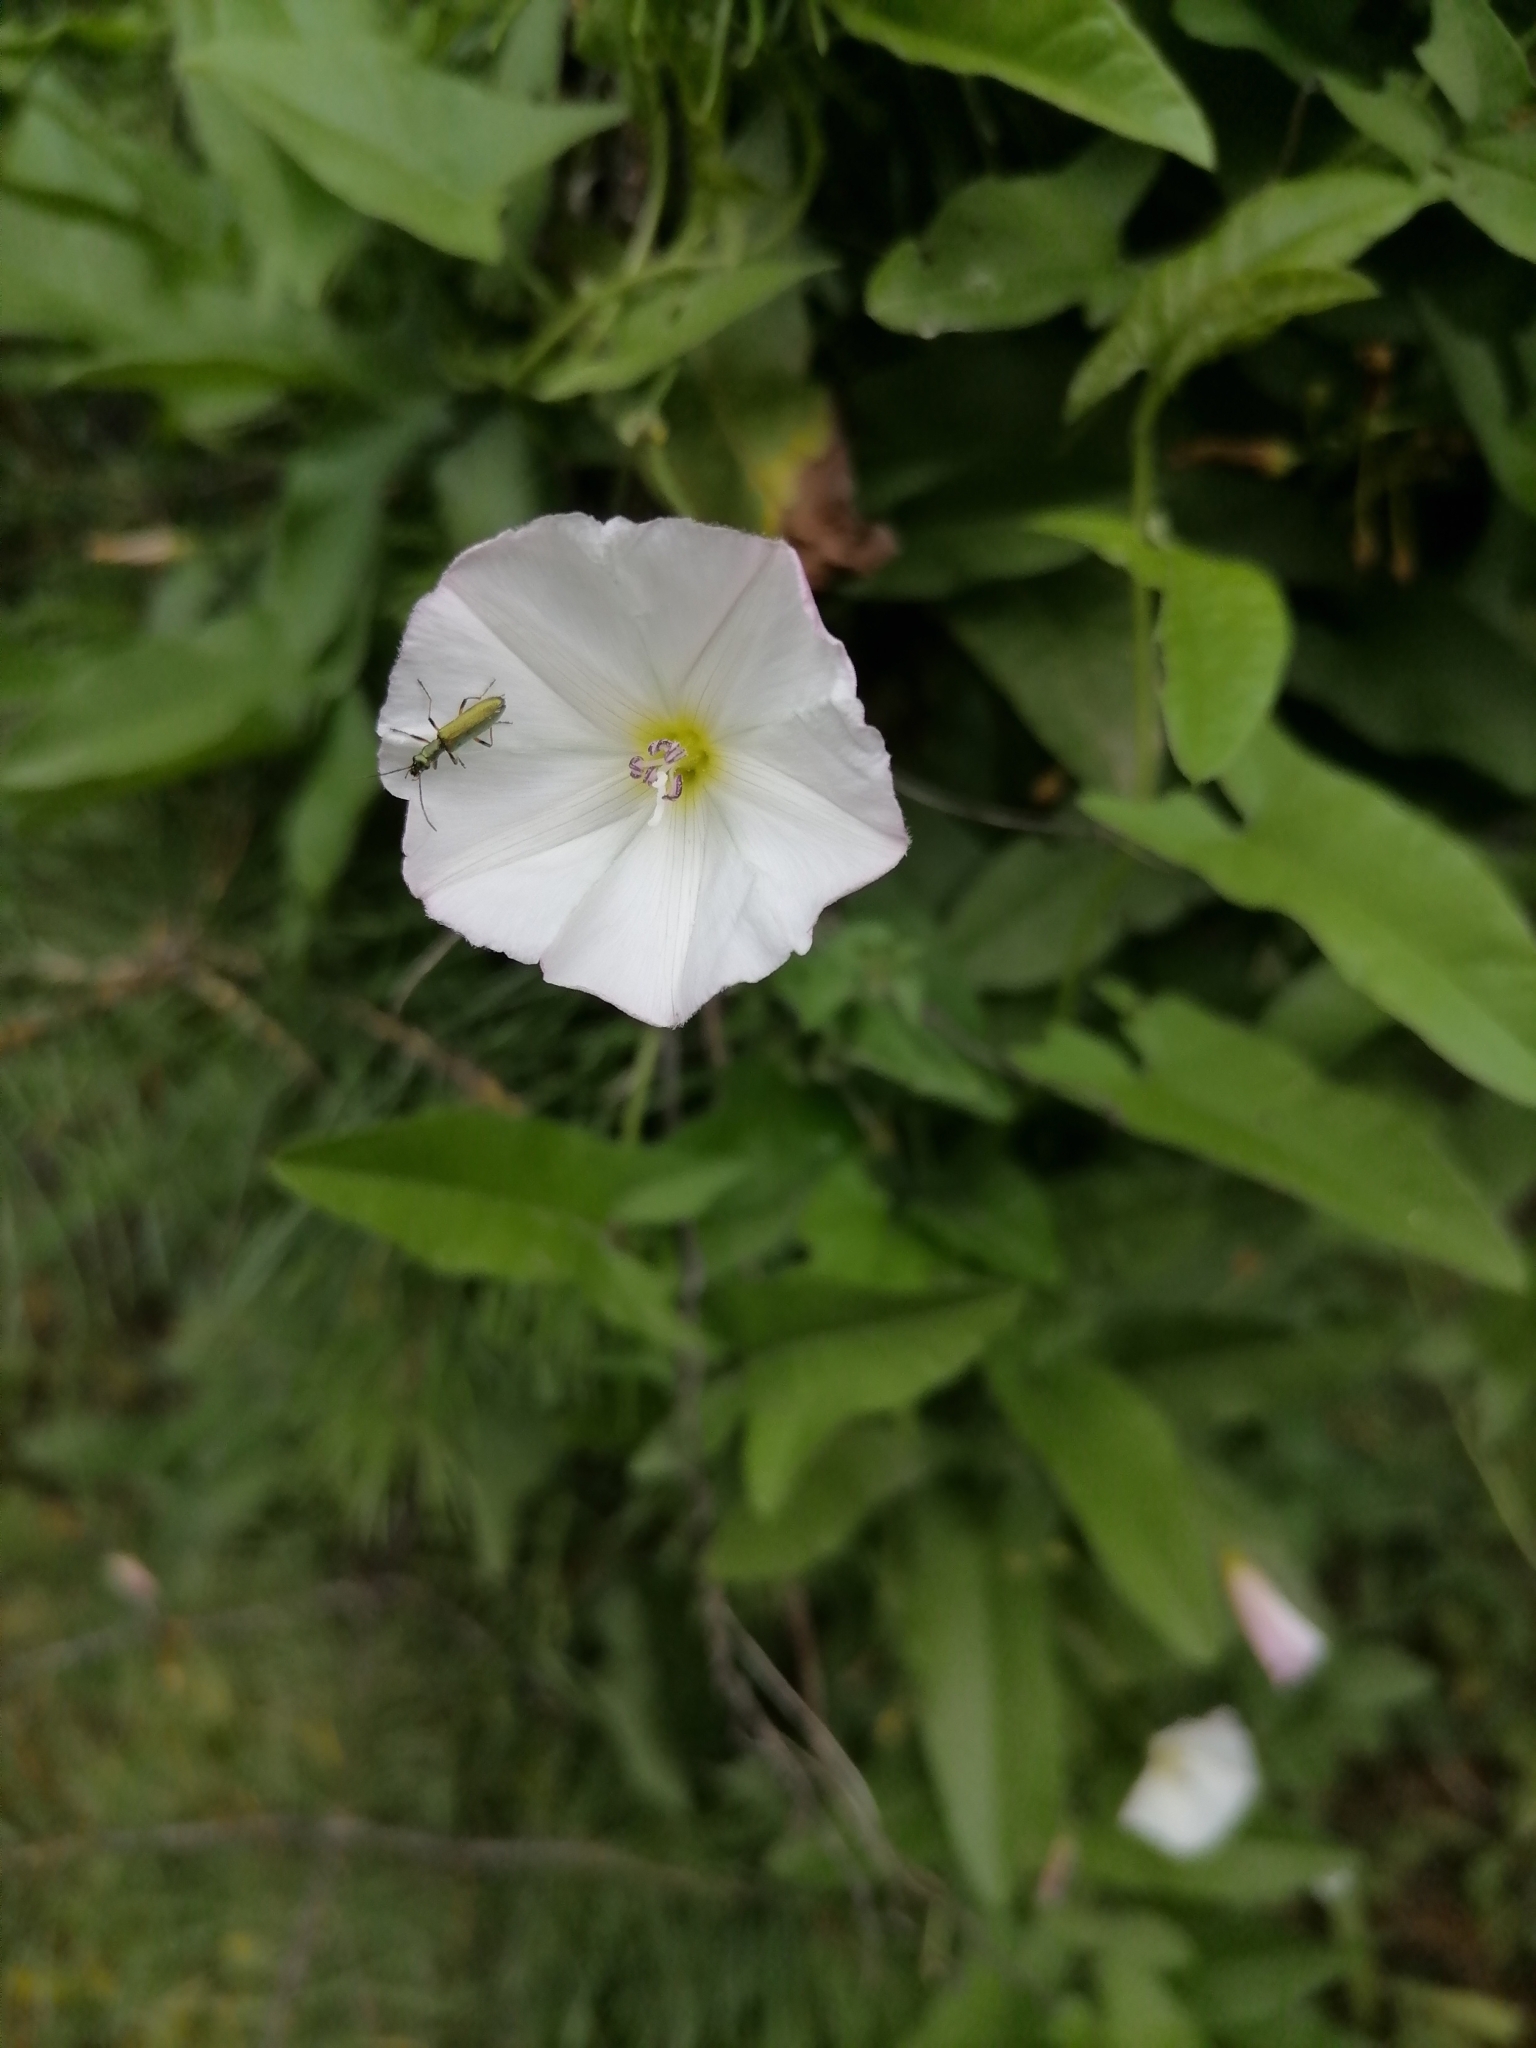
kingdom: Plantae
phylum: Tracheophyta
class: Magnoliopsida
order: Solanales
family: Convolvulaceae
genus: Convolvulus
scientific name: Convolvulus arvensis
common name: Field bindweed
